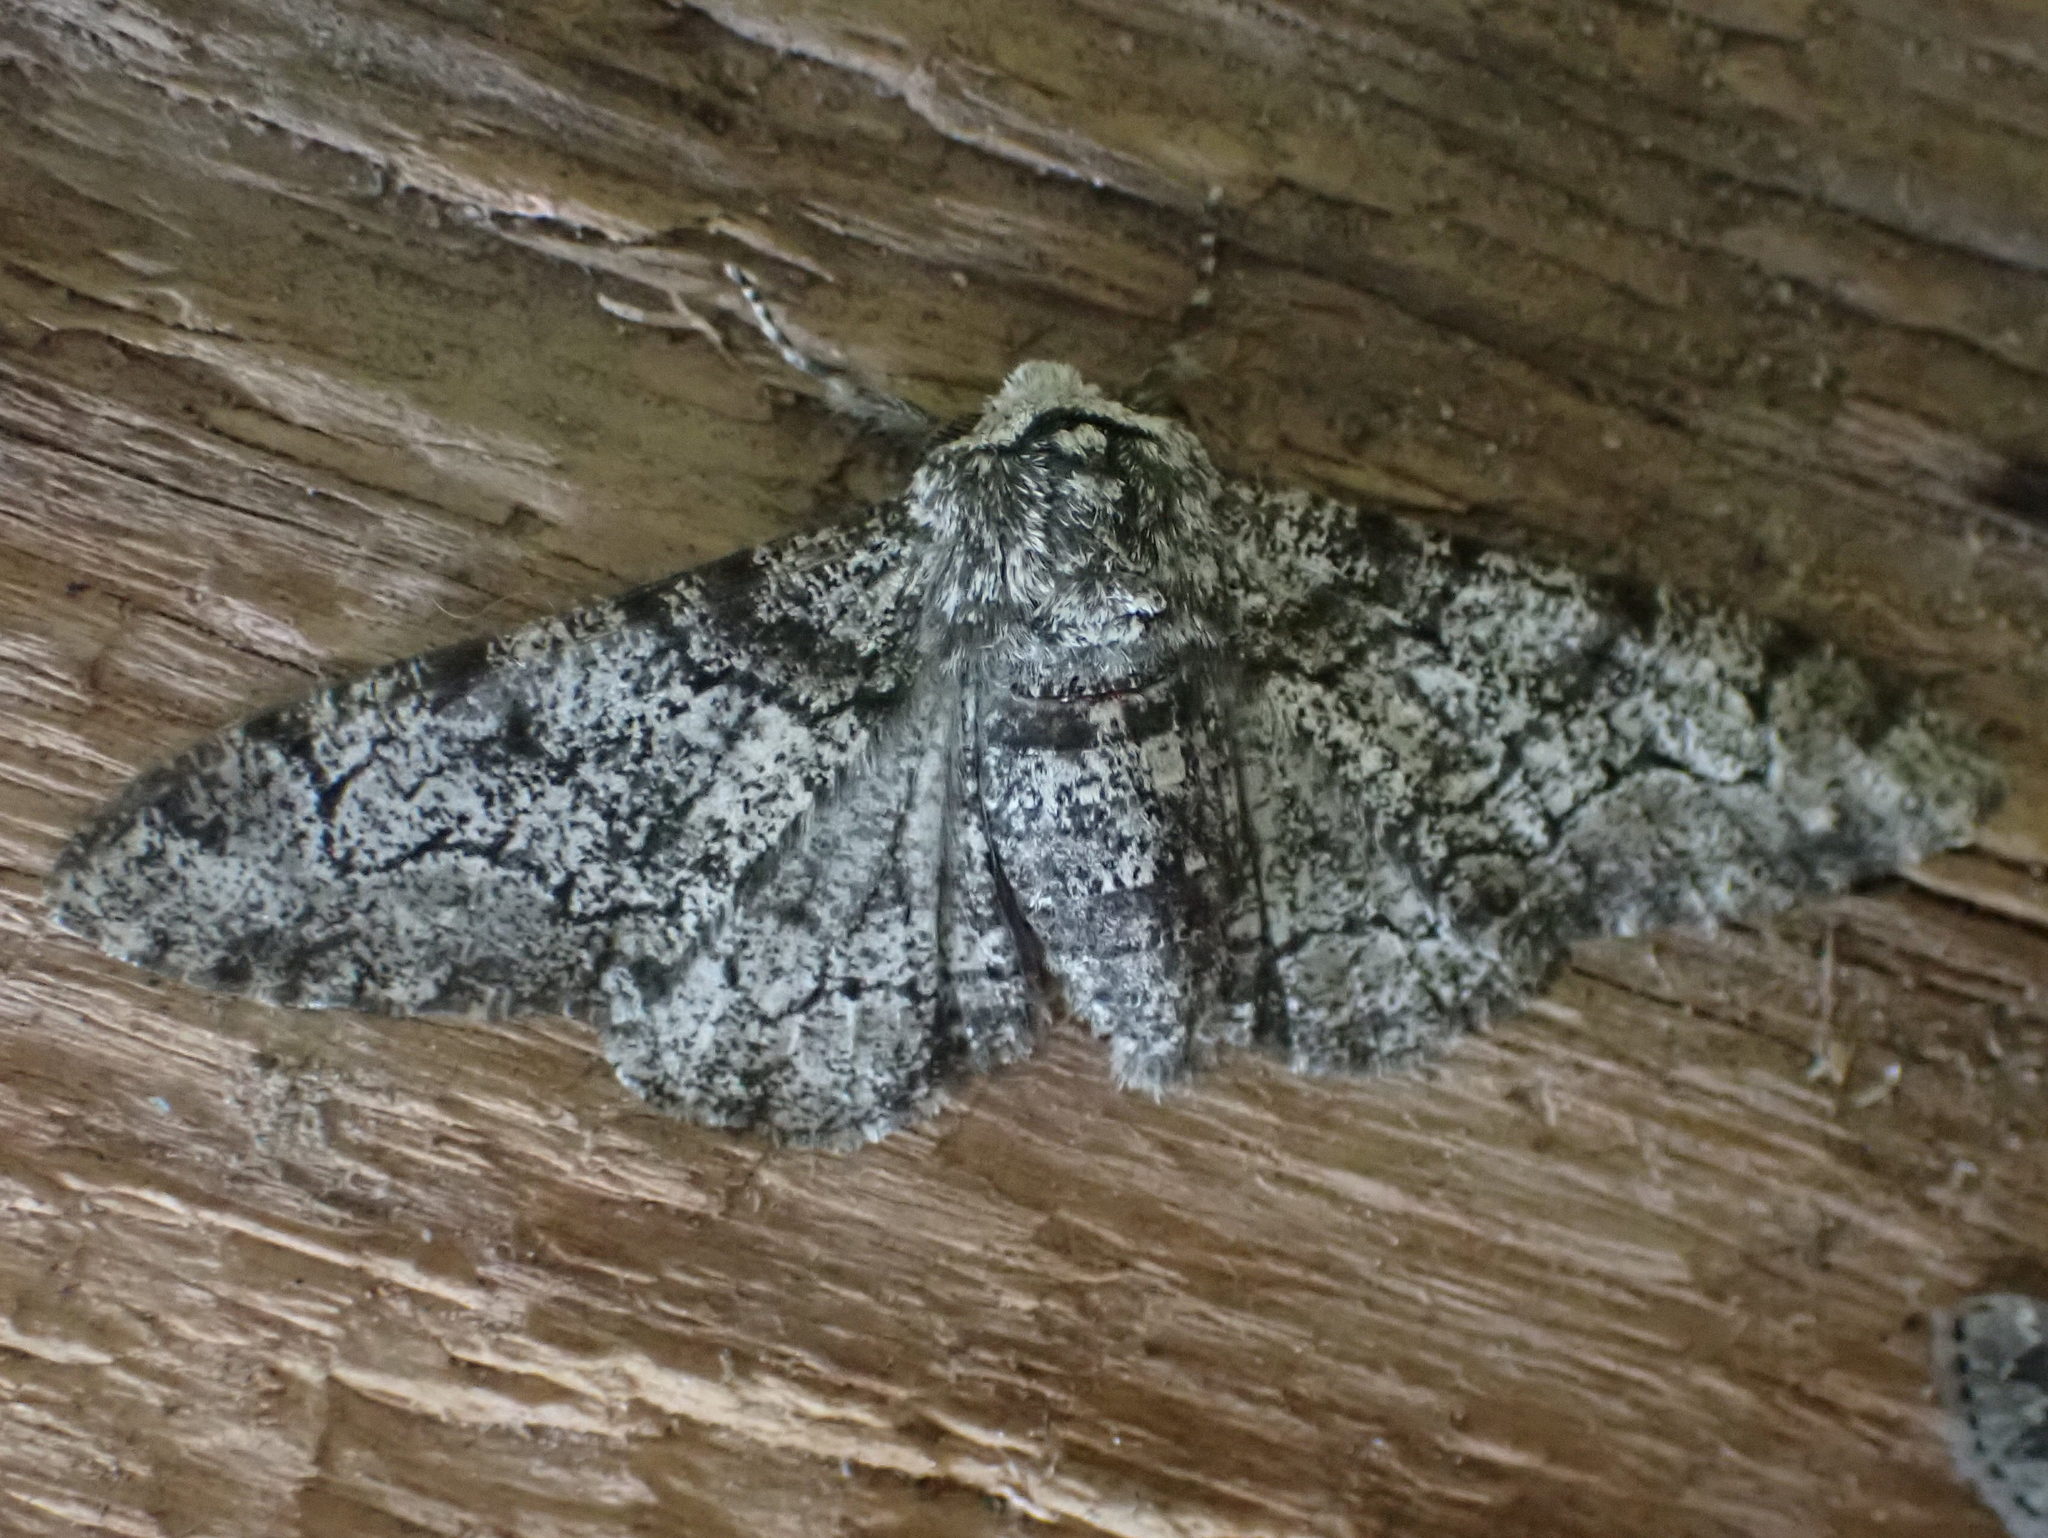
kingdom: Animalia
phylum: Arthropoda
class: Insecta
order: Lepidoptera
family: Geometridae
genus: Biston
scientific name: Biston betularia
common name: Peppered moth
